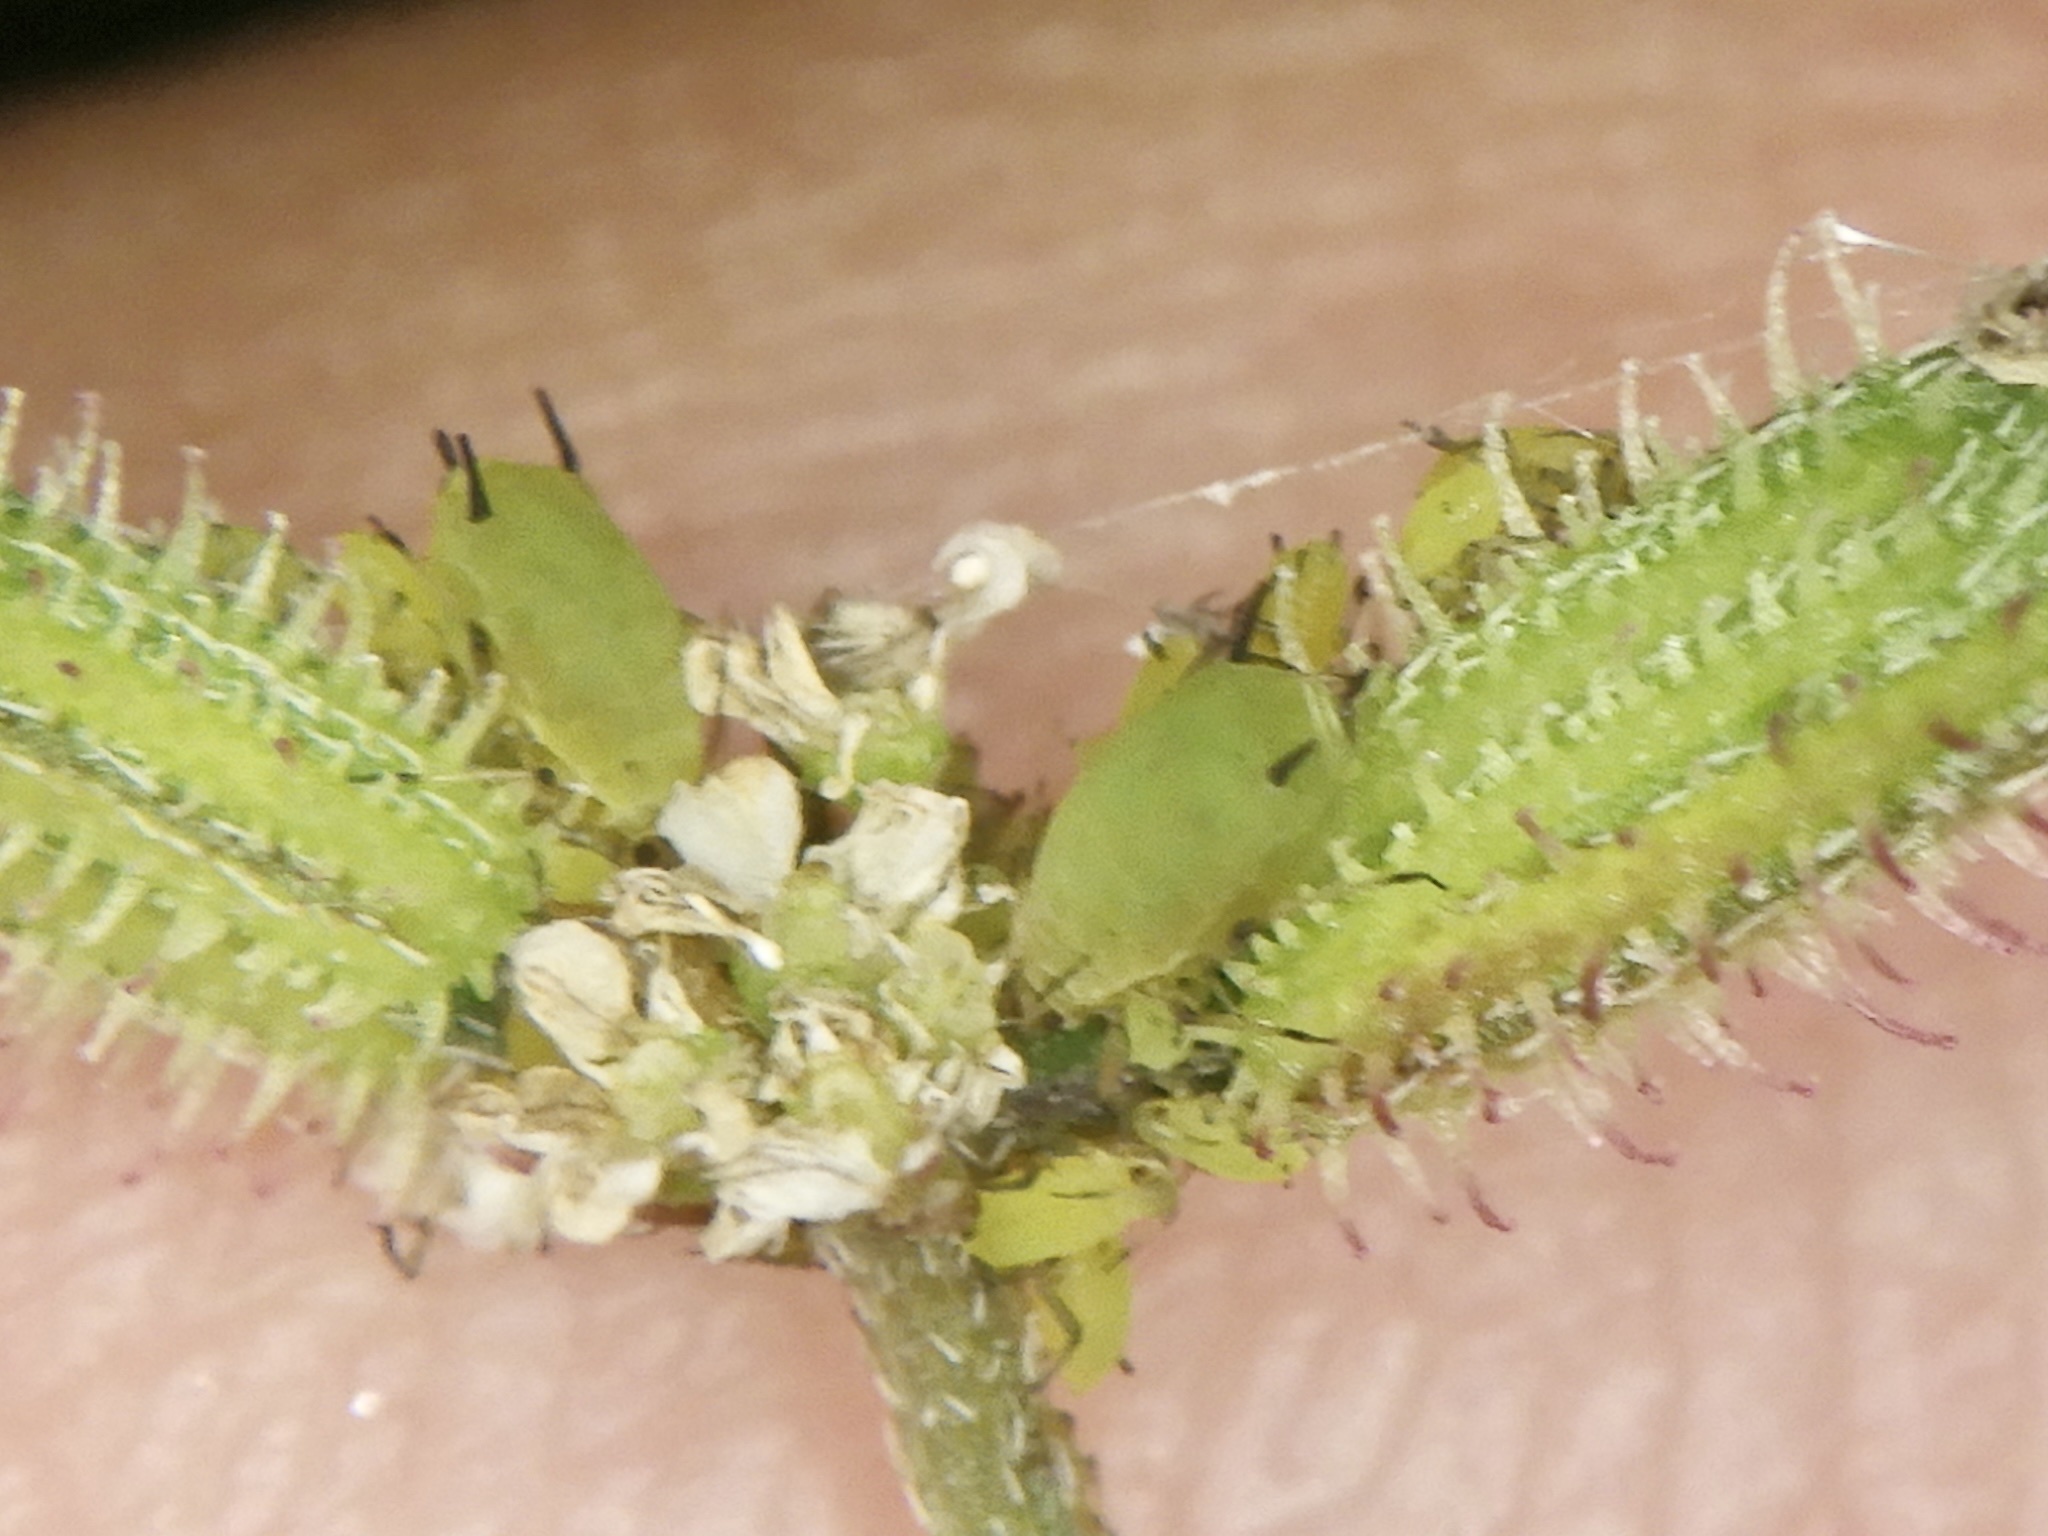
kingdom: Animalia
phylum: Arthropoda
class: Insecta
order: Hemiptera
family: Aphididae
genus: Aphis
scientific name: Aphis spiraecola
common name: Spirea aphid
